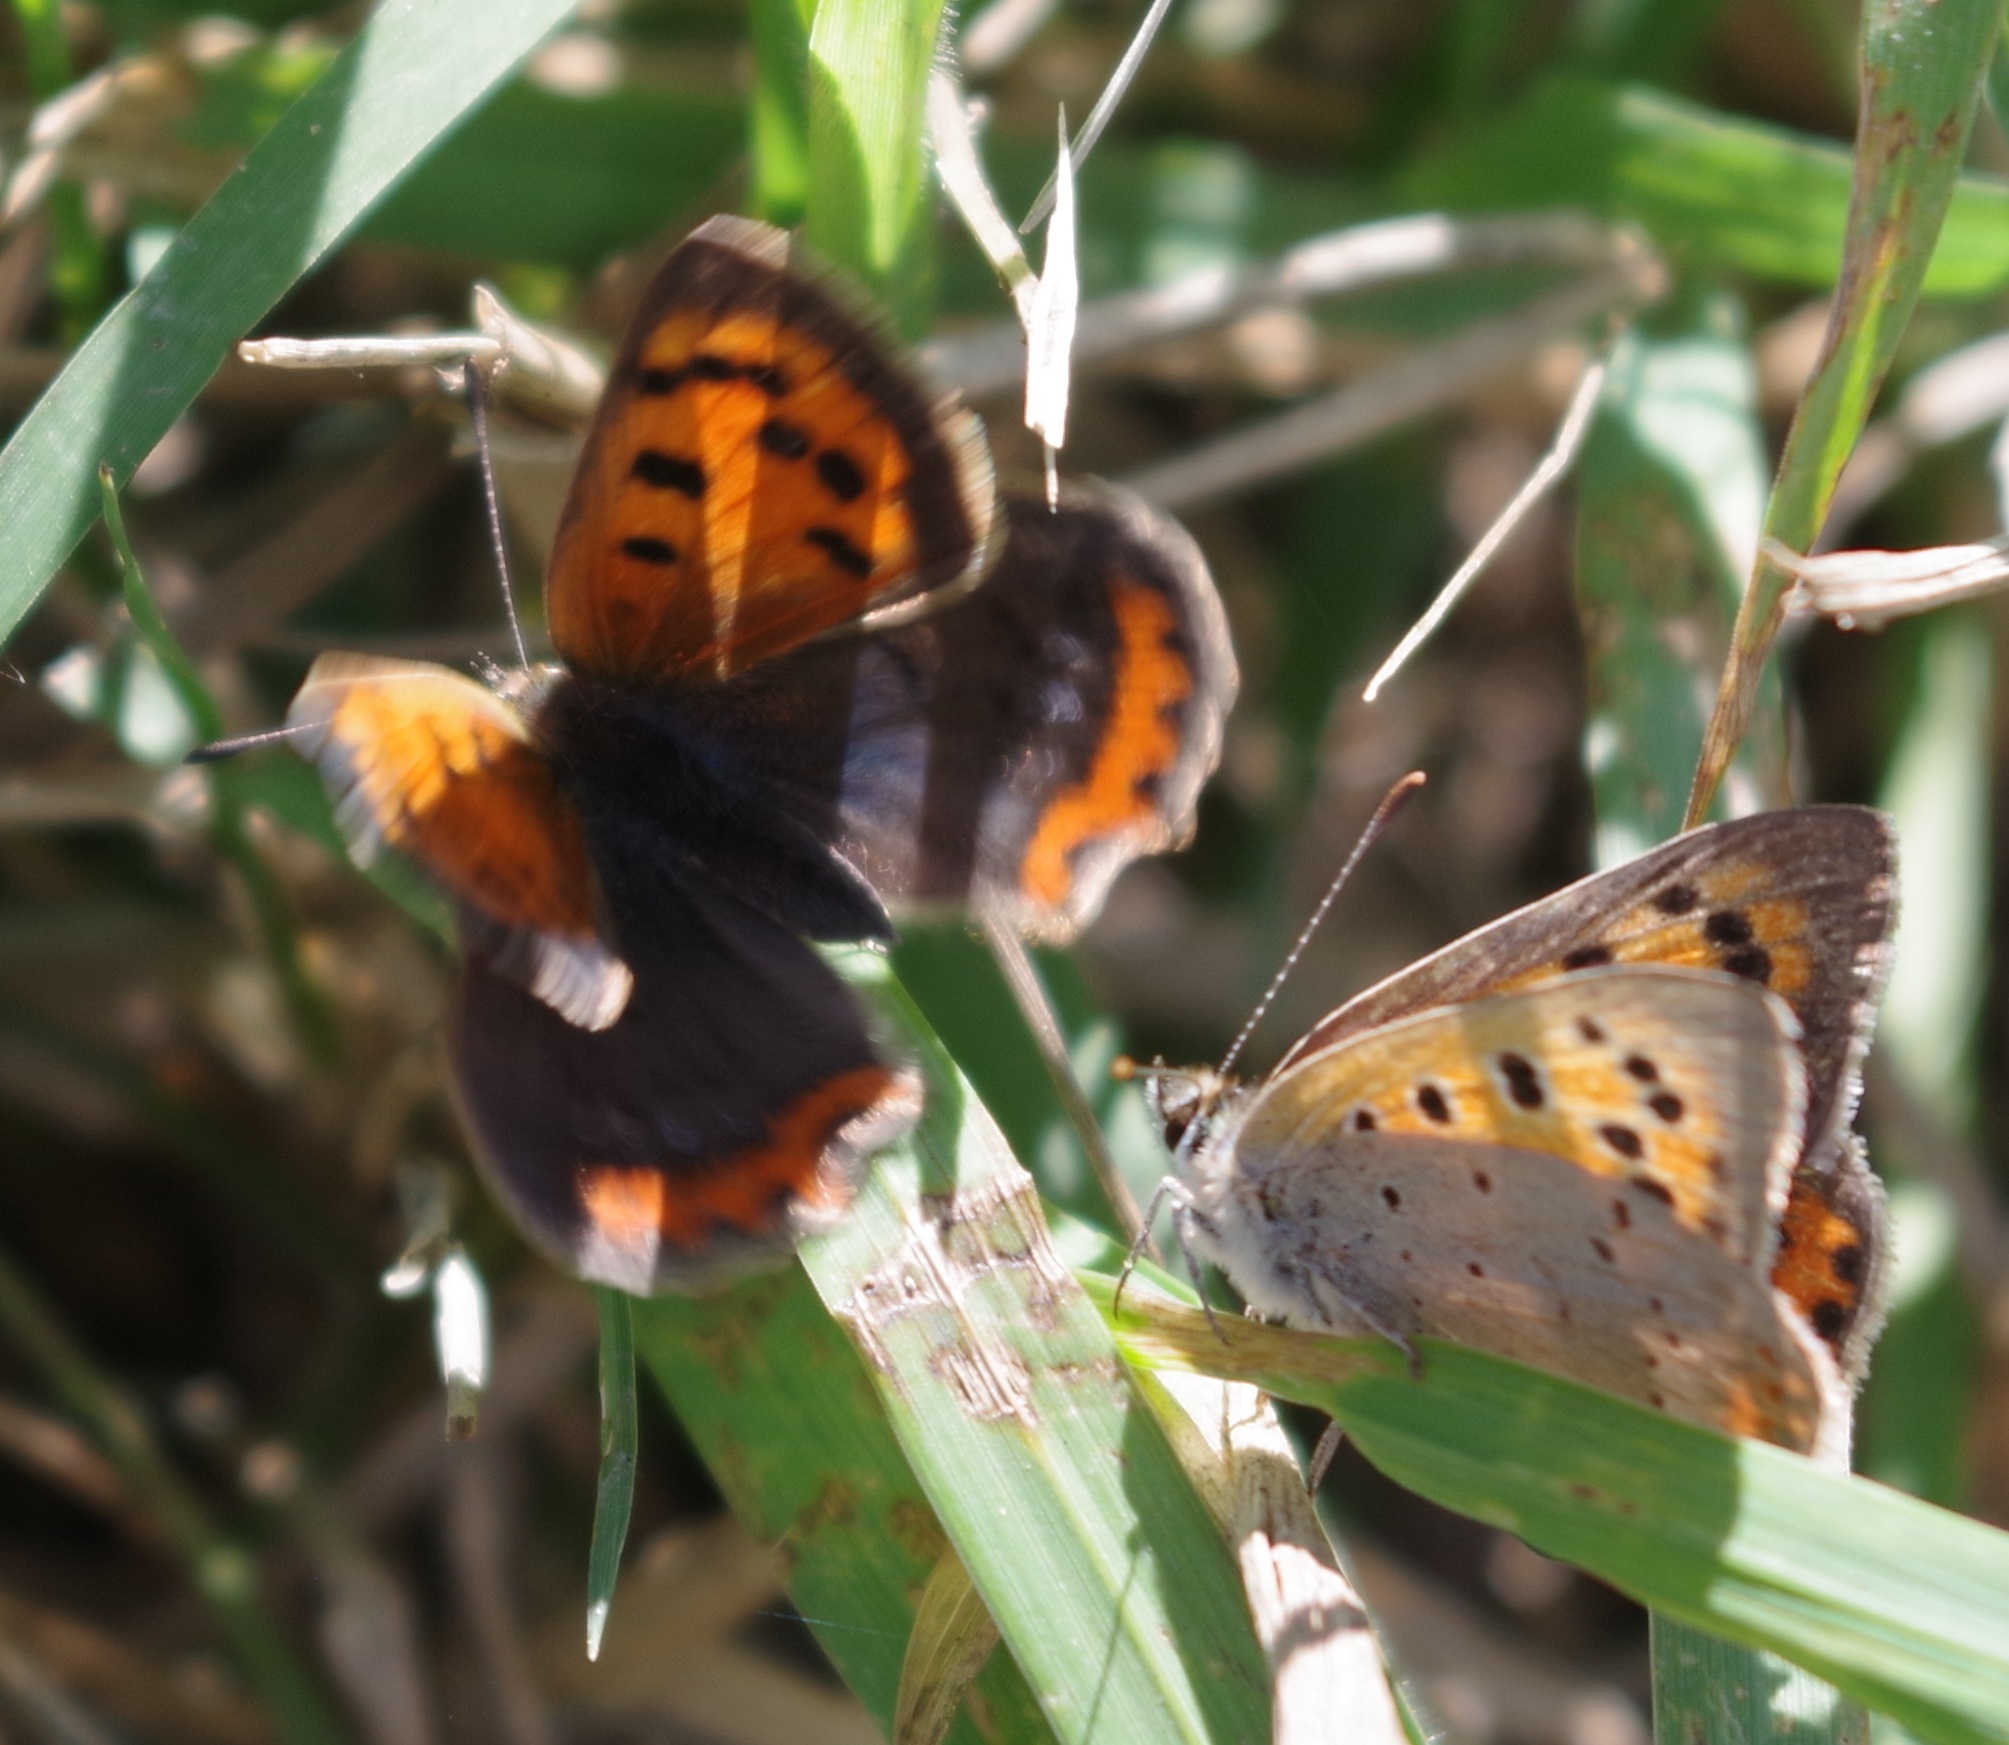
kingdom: Animalia
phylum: Arthropoda
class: Insecta
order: Lepidoptera
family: Lycaenidae
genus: Lycaena
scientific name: Lycaena phlaeas
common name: Small copper
